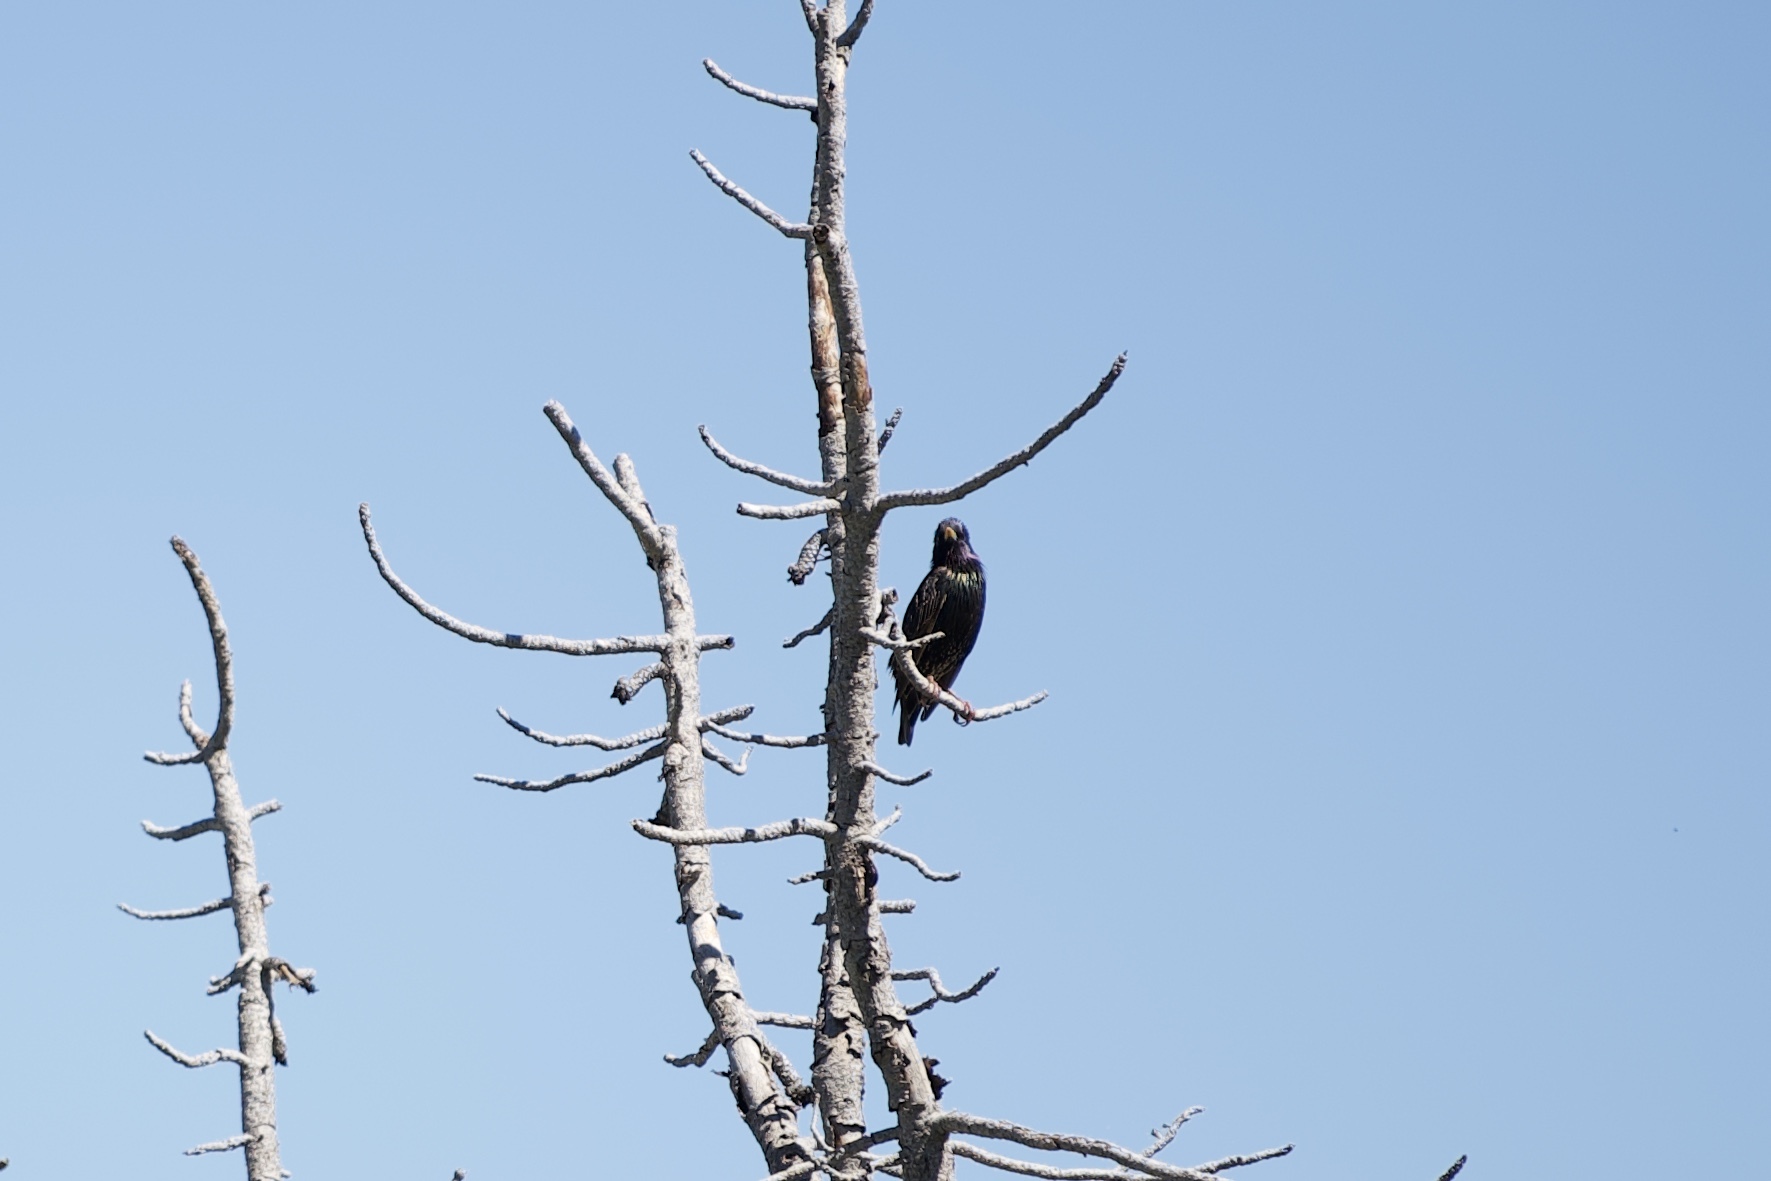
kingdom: Animalia
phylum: Chordata
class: Aves
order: Passeriformes
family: Sturnidae
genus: Sturnus
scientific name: Sturnus vulgaris
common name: Common starling
